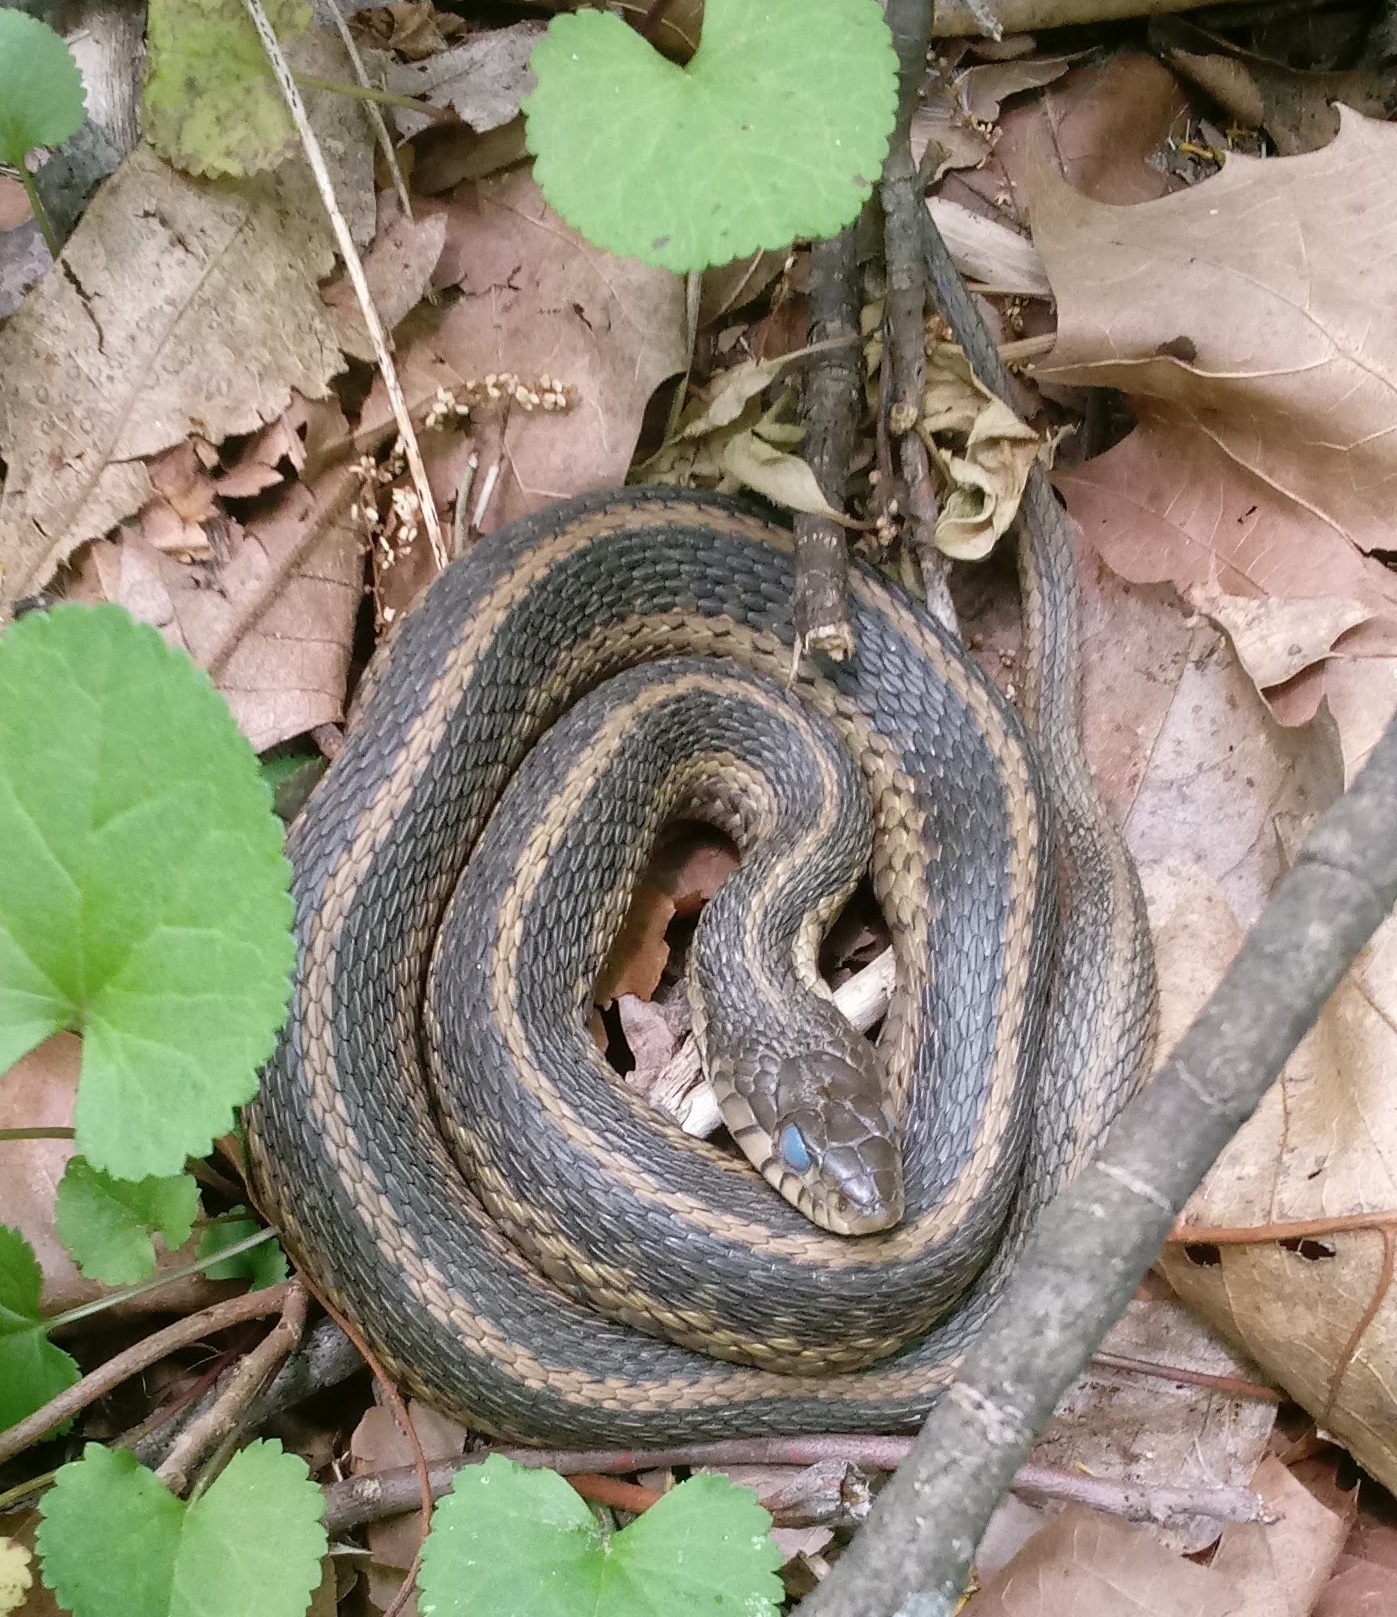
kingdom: Animalia
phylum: Chordata
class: Squamata
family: Colubridae
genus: Thamnophis
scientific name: Thamnophis sirtalis
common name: Common garter snake
